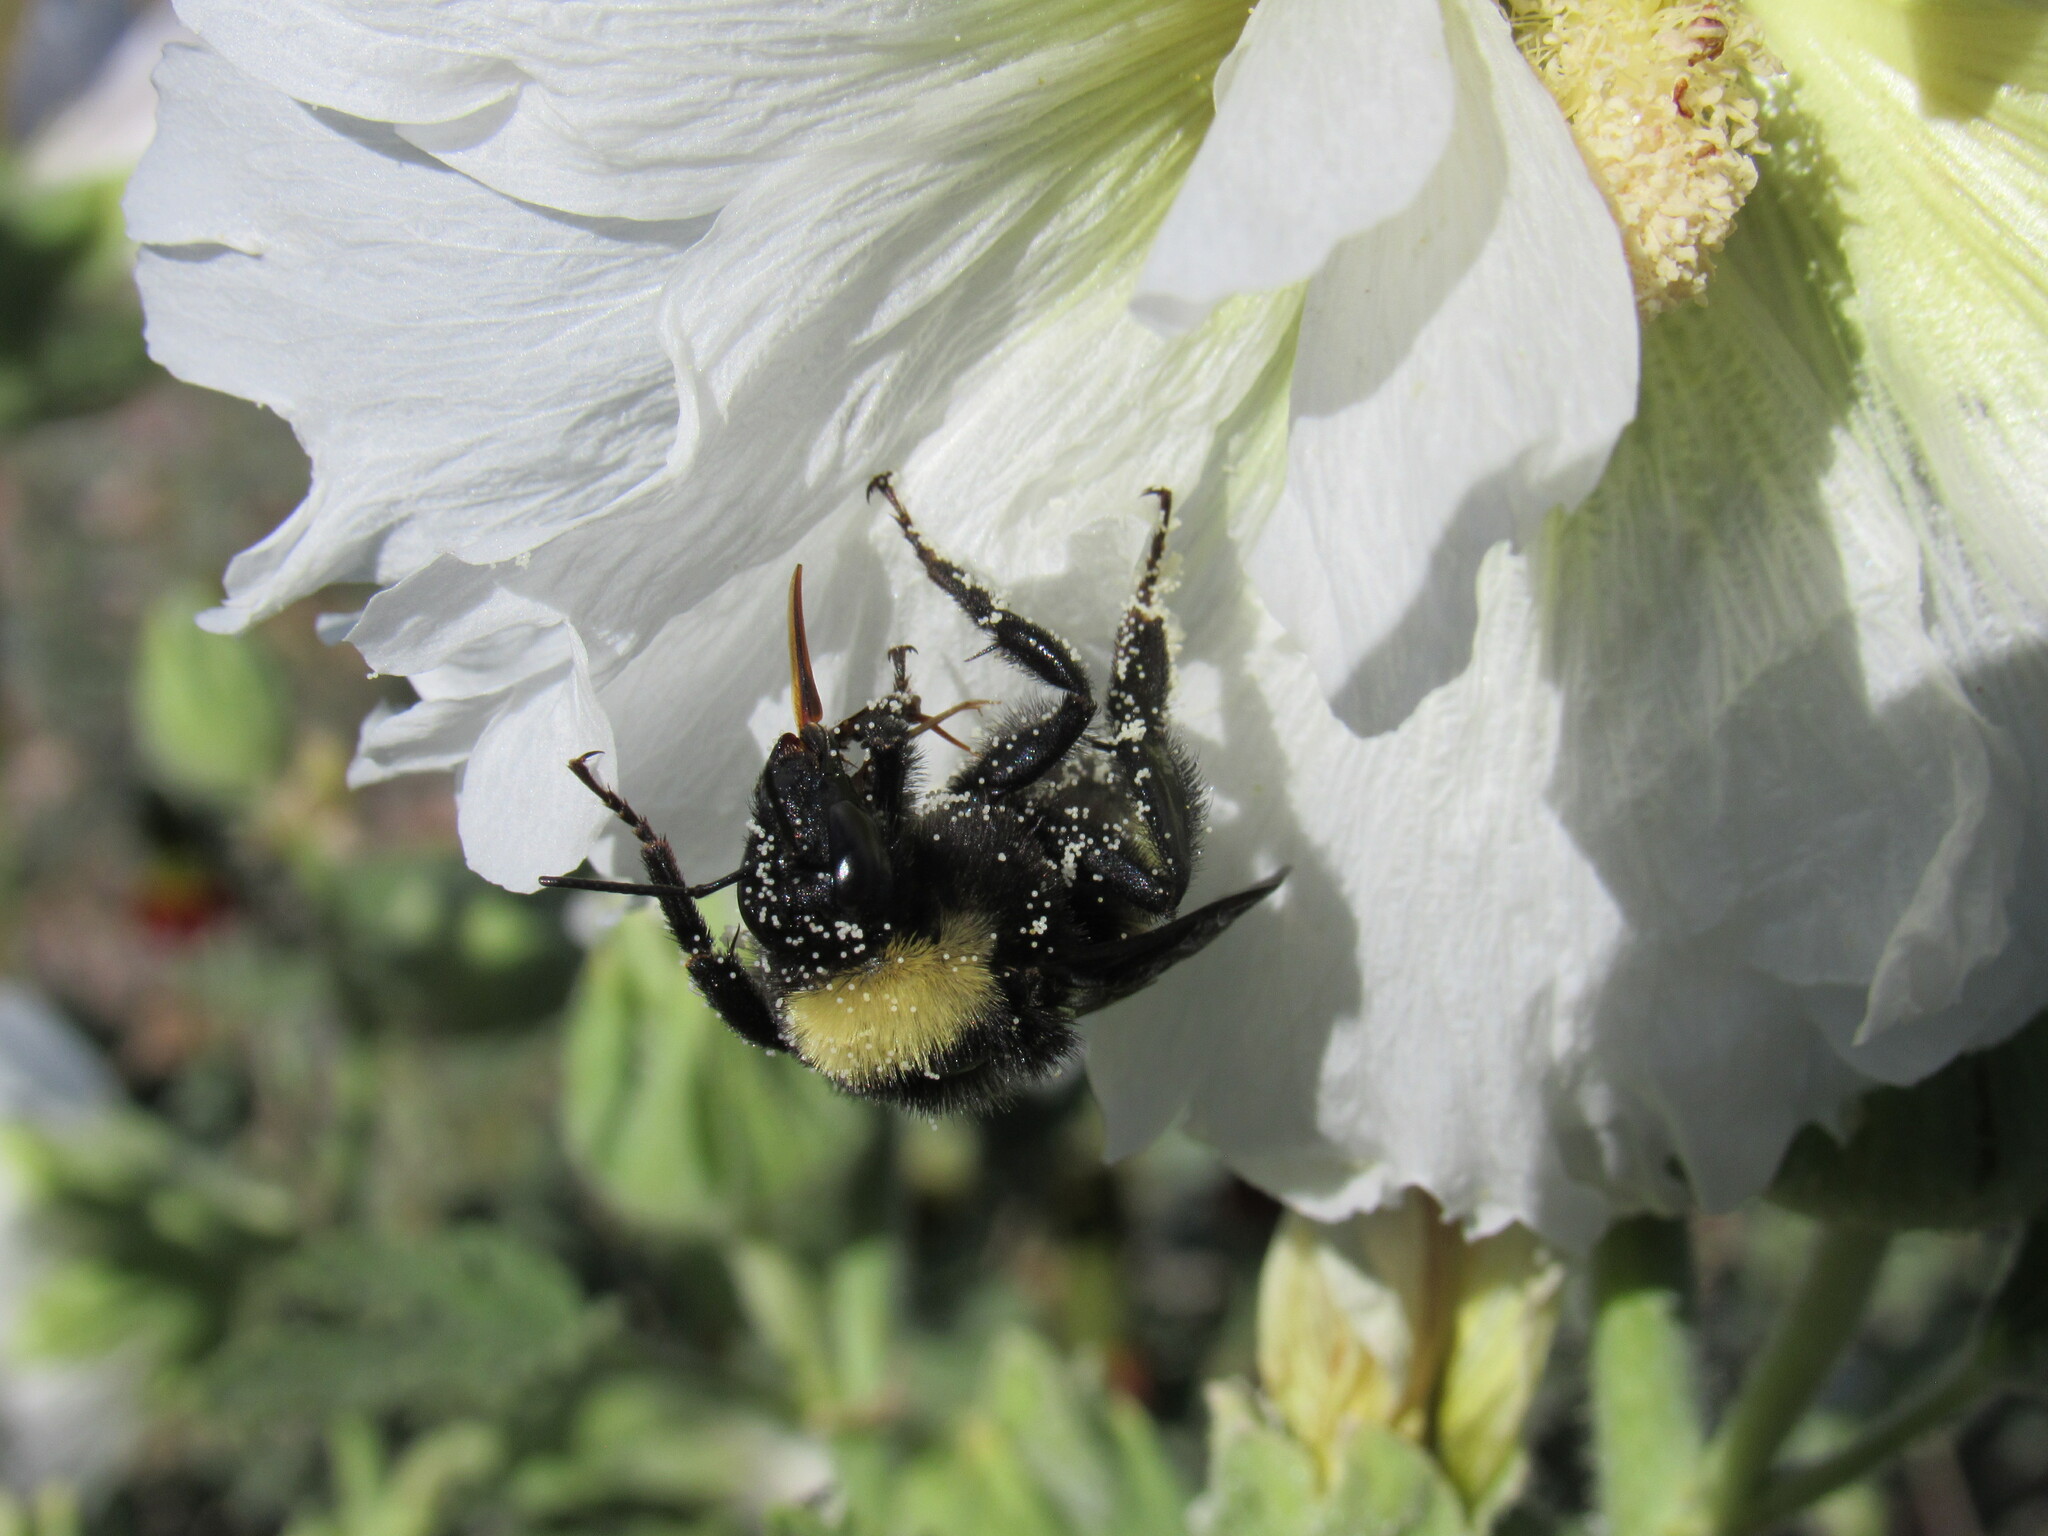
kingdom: Animalia
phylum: Arthropoda
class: Insecta
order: Hymenoptera
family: Apidae
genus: Bombus
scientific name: Bombus pensylvanicus
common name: Bumble bee
